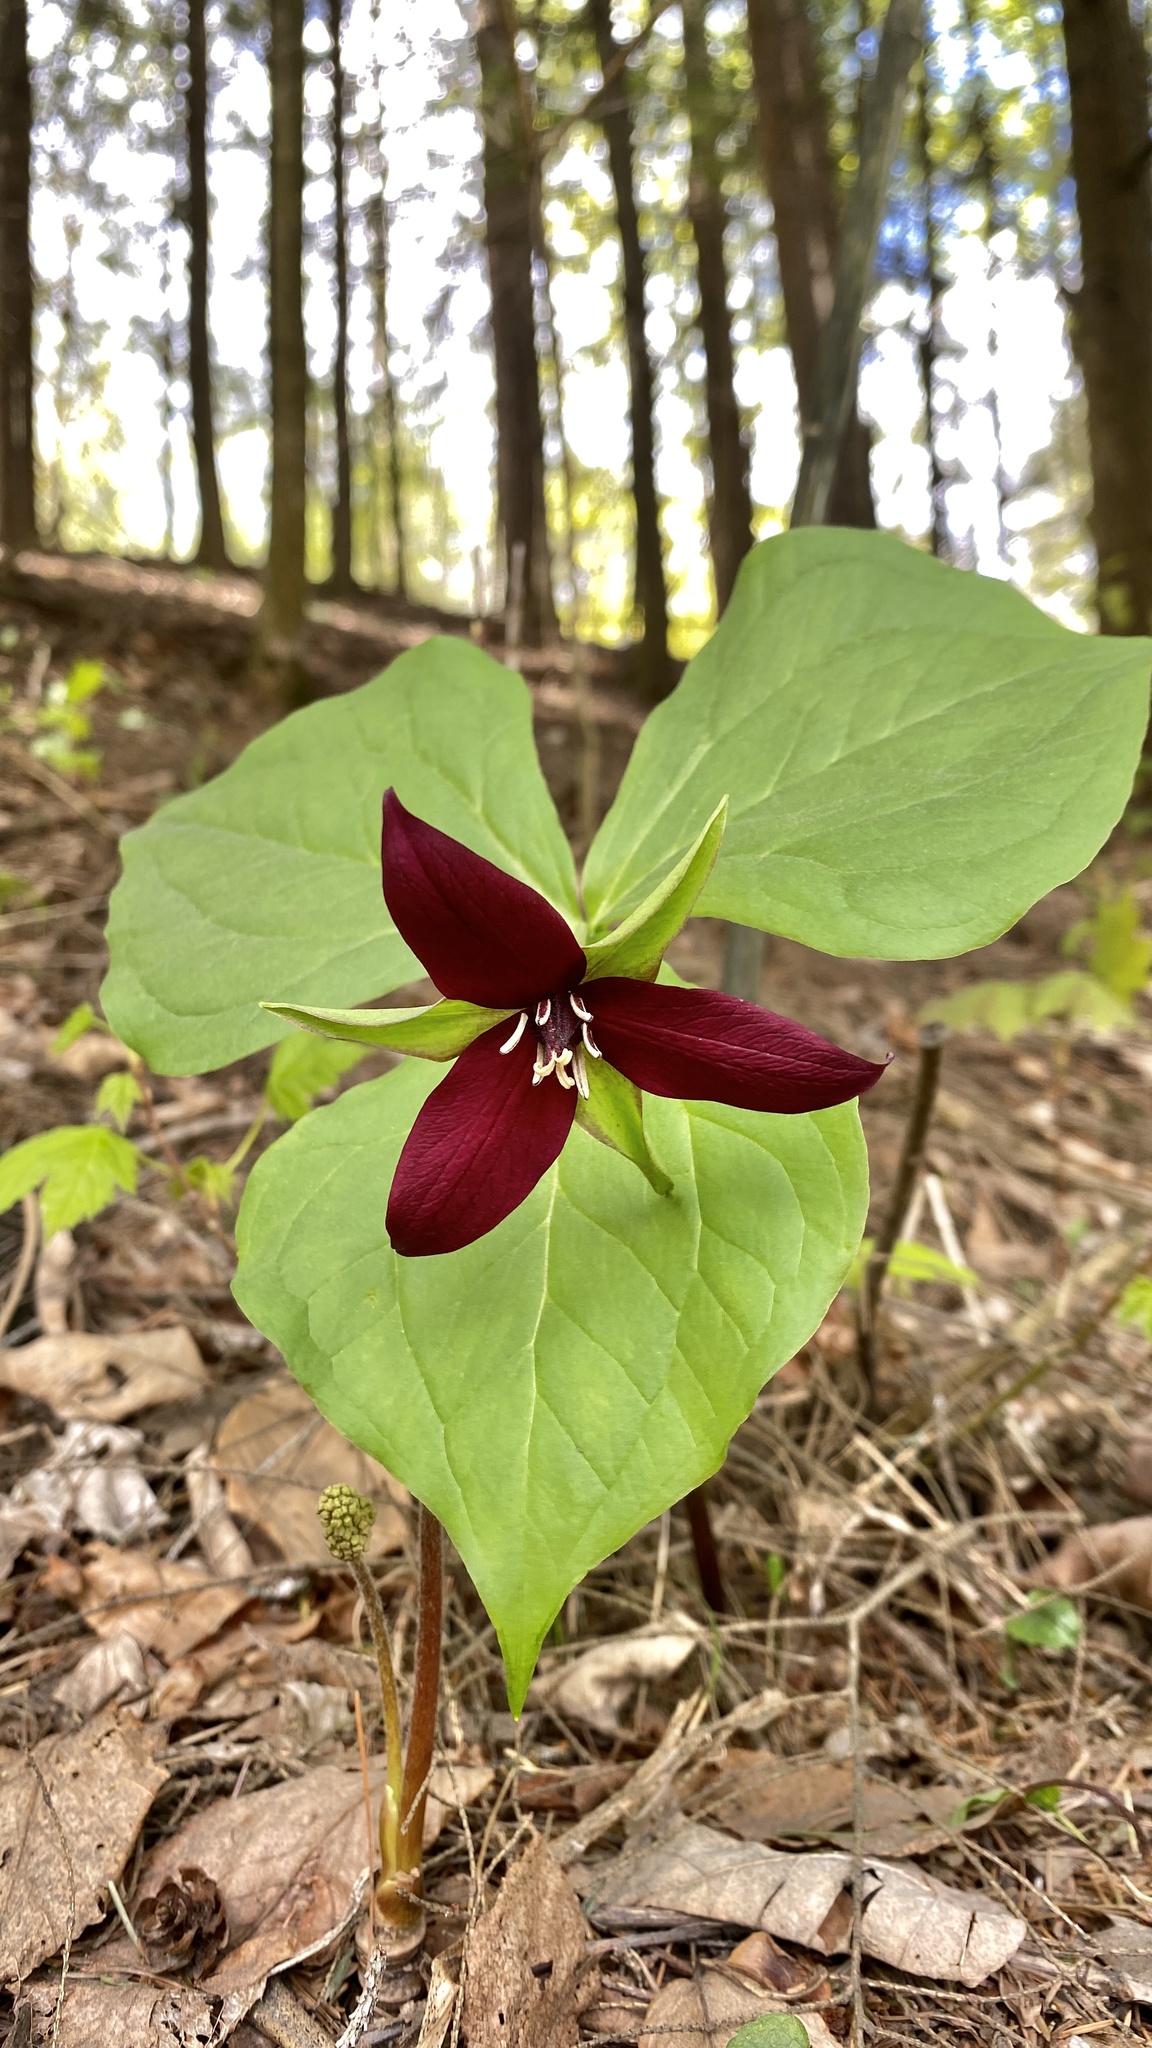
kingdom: Plantae
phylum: Tracheophyta
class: Liliopsida
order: Liliales
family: Melanthiaceae
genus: Trillium
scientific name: Trillium erectum
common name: Purple trillium
